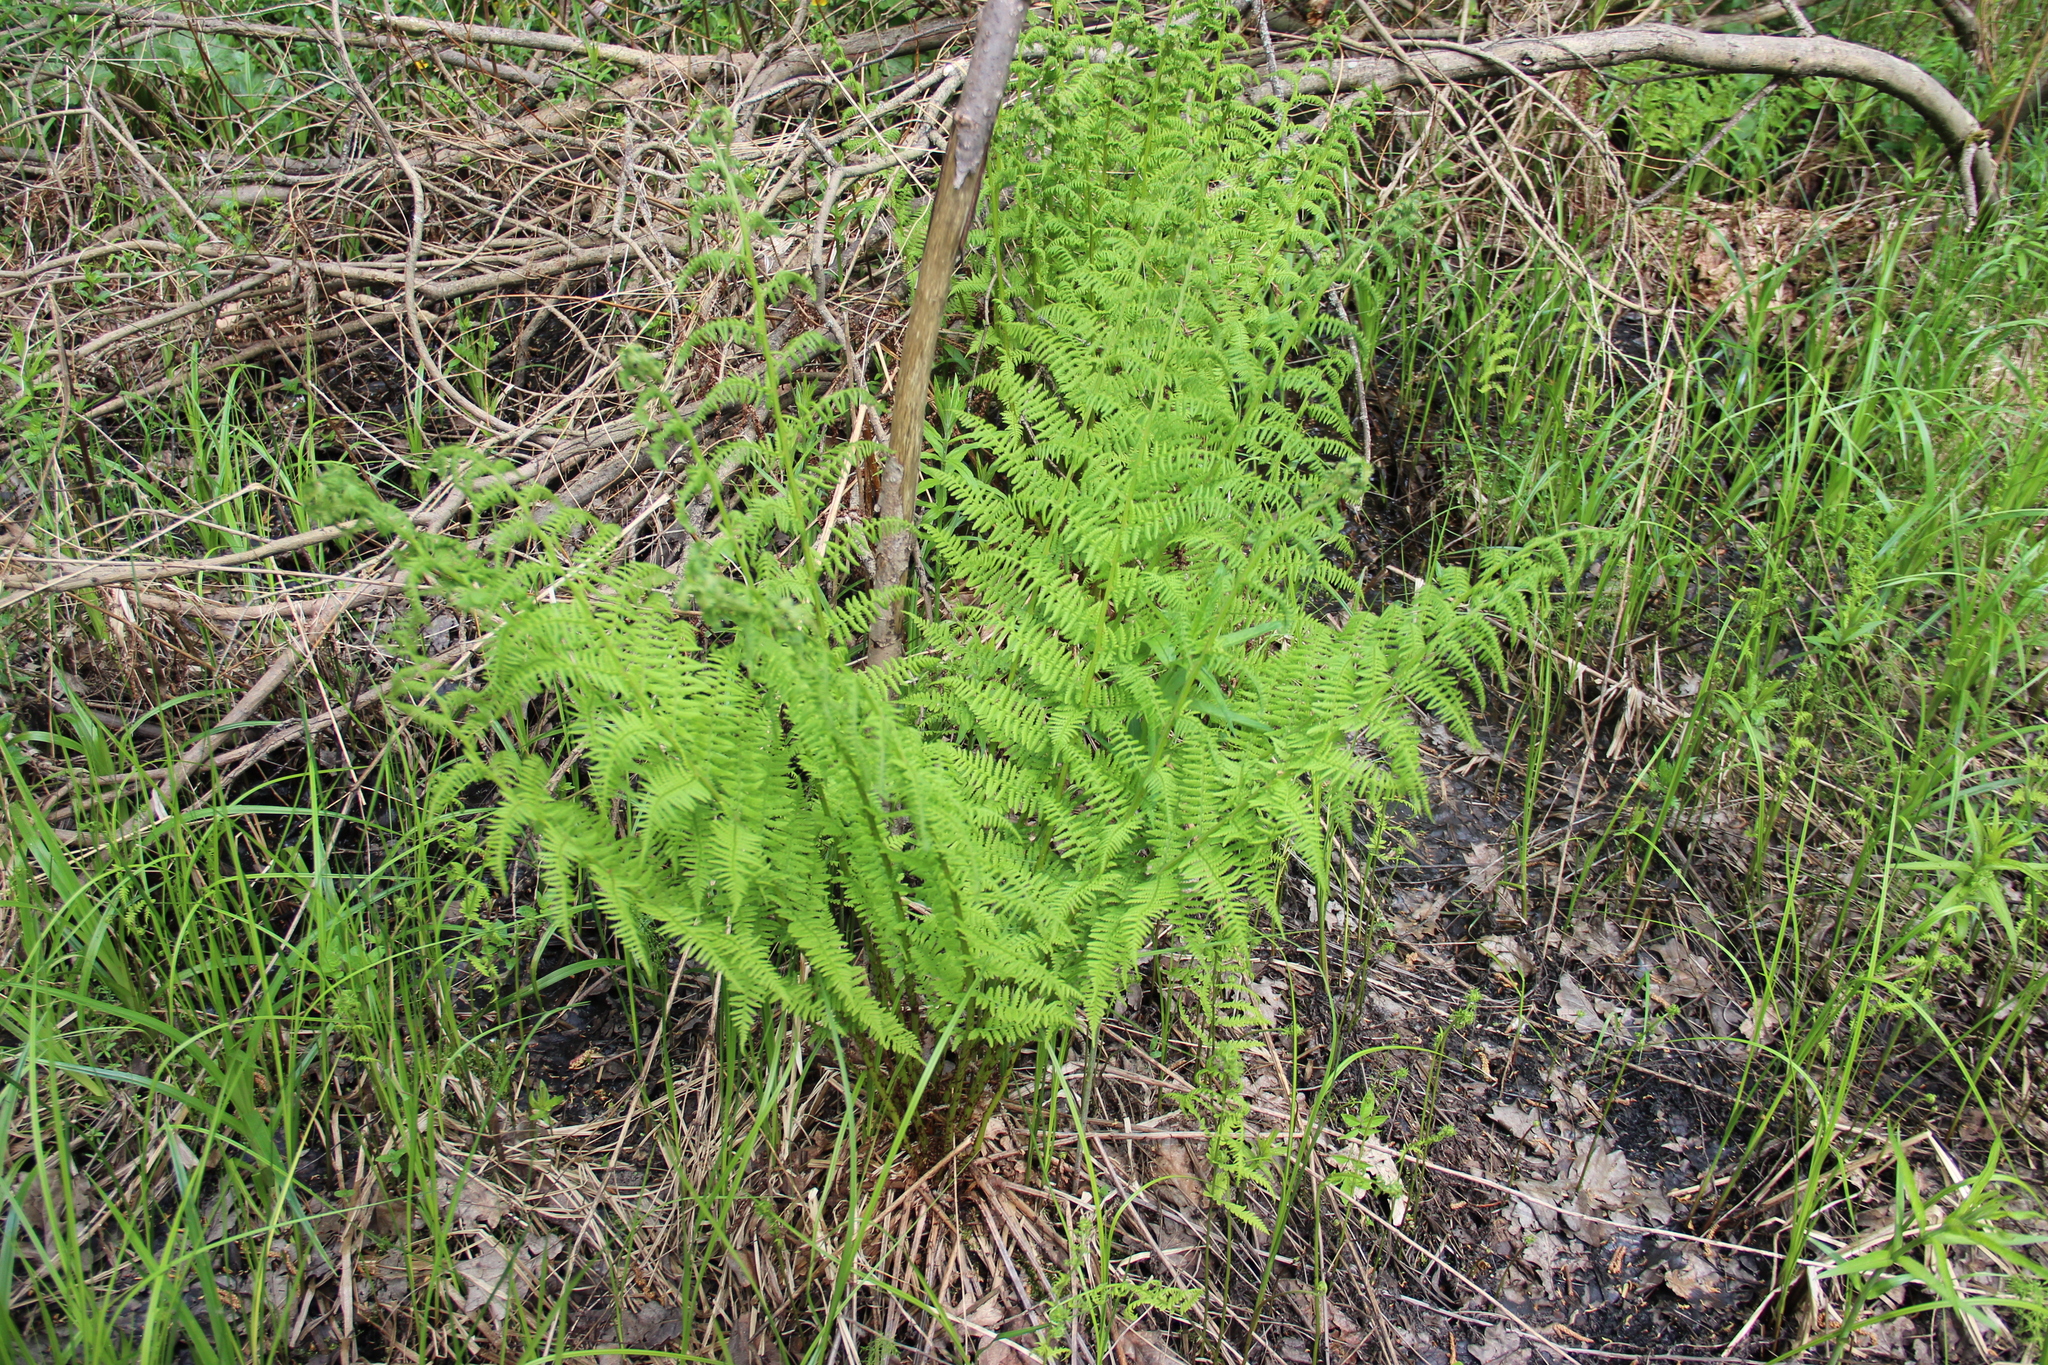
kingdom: Plantae
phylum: Tracheophyta
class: Polypodiopsida
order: Polypodiales
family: Athyriaceae
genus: Athyrium
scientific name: Athyrium filix-femina
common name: Lady fern
